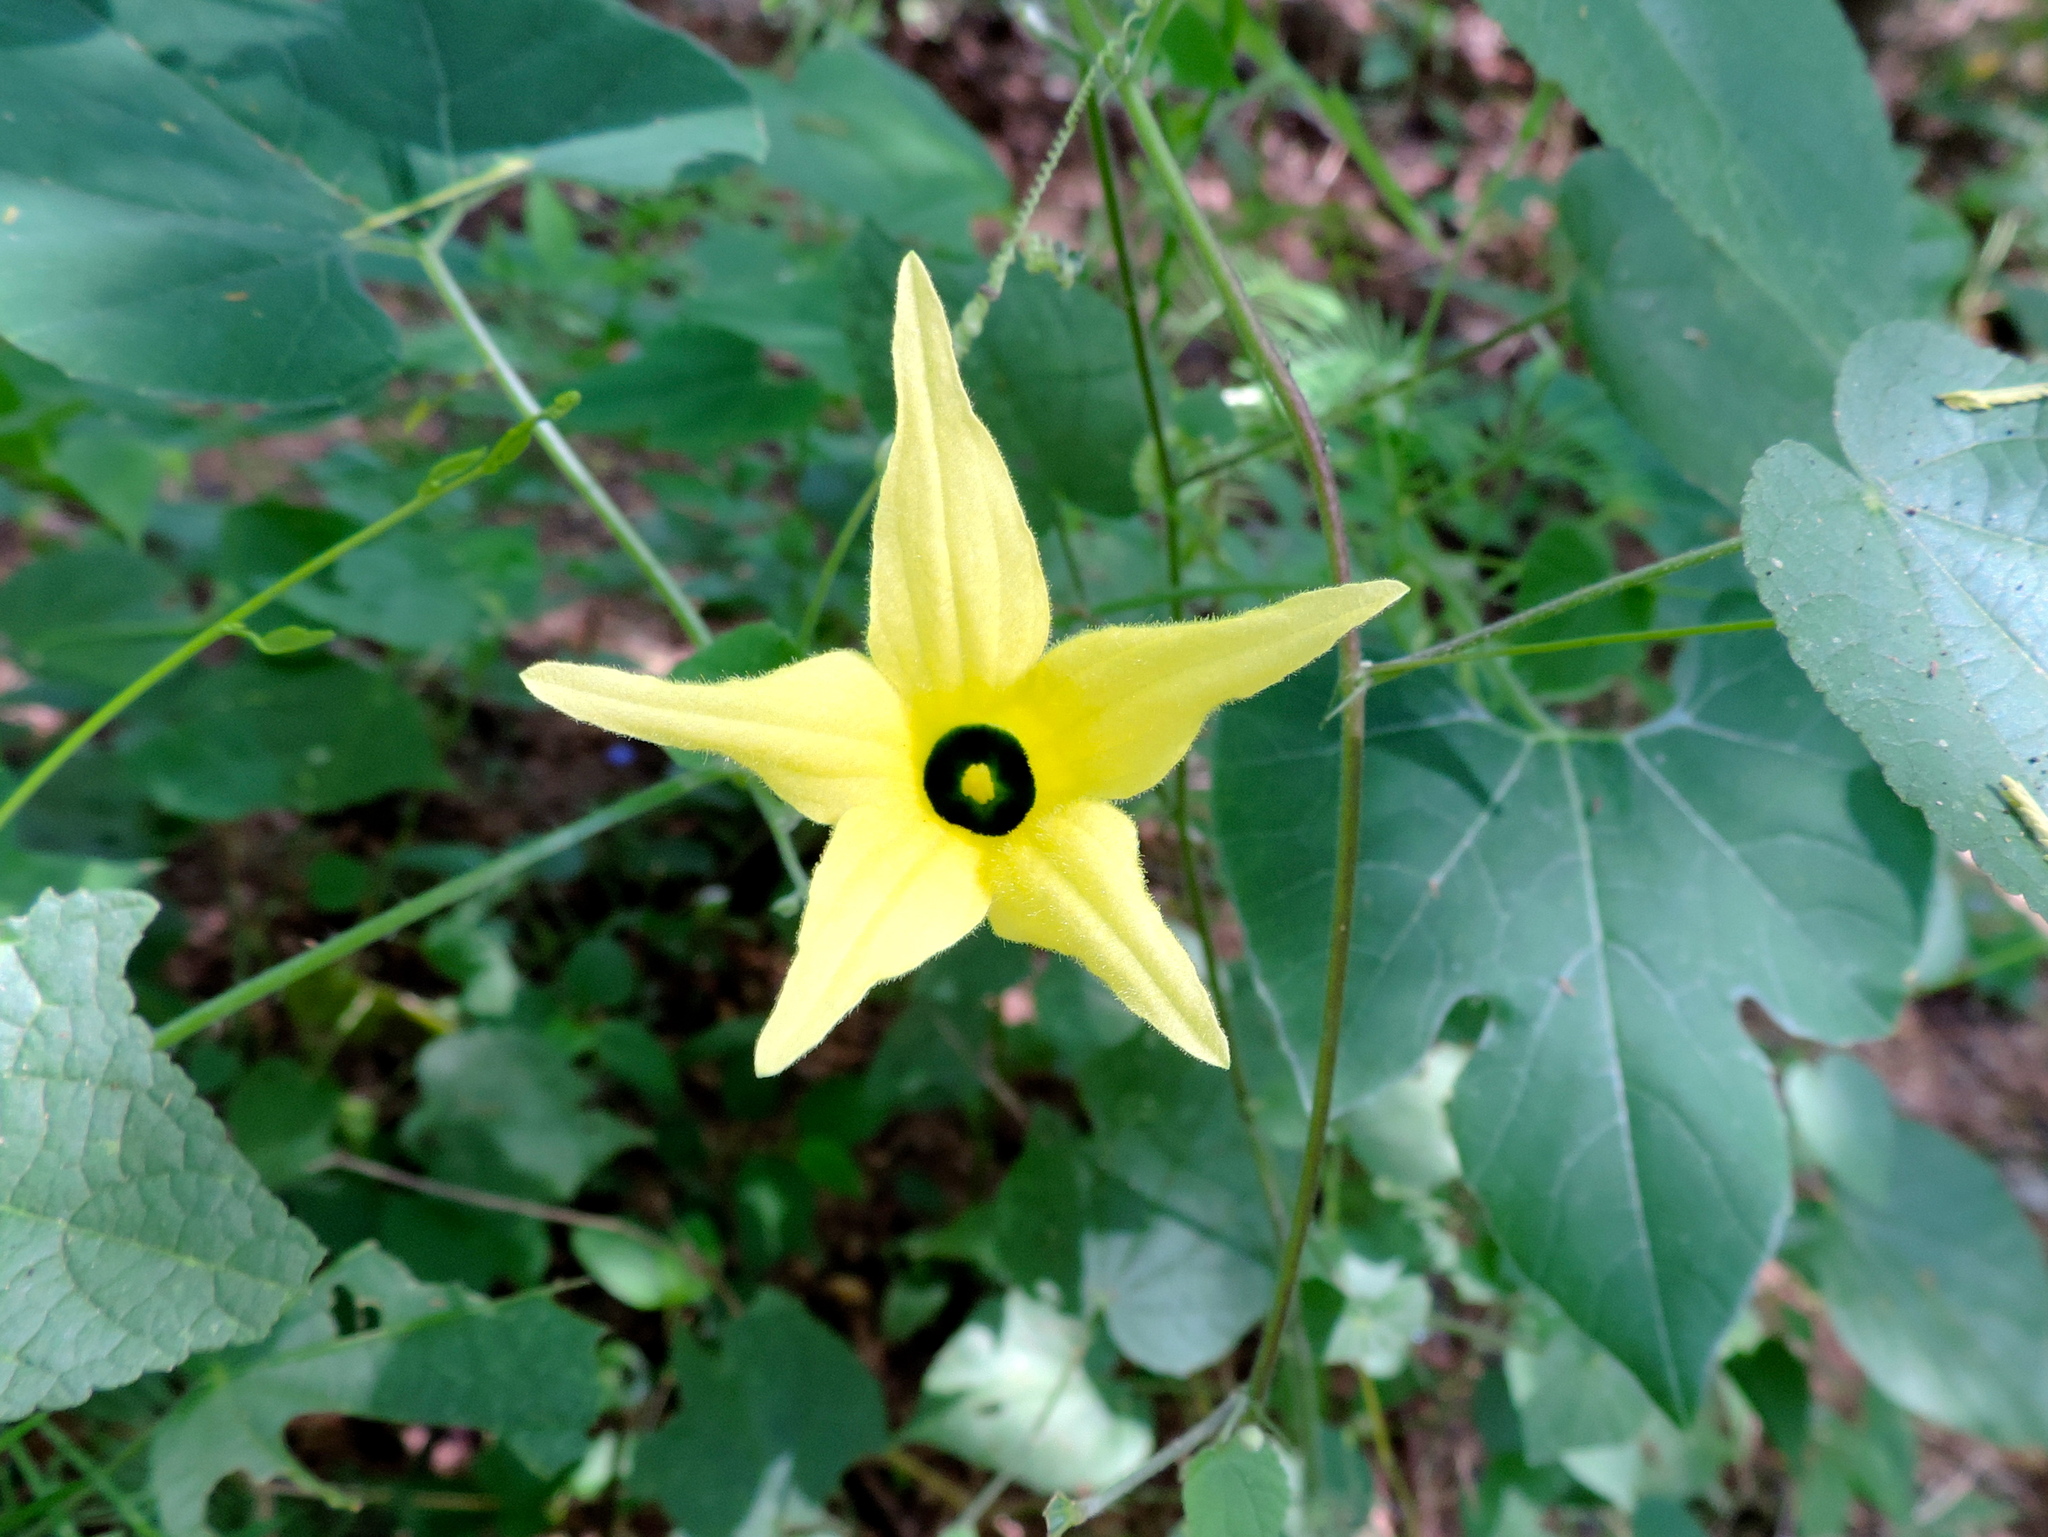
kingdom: Plantae
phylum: Tracheophyta
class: Magnoliopsida
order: Cucurbitales
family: Cucurbitaceae
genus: Schizocarpum
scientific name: Schizocarpum
